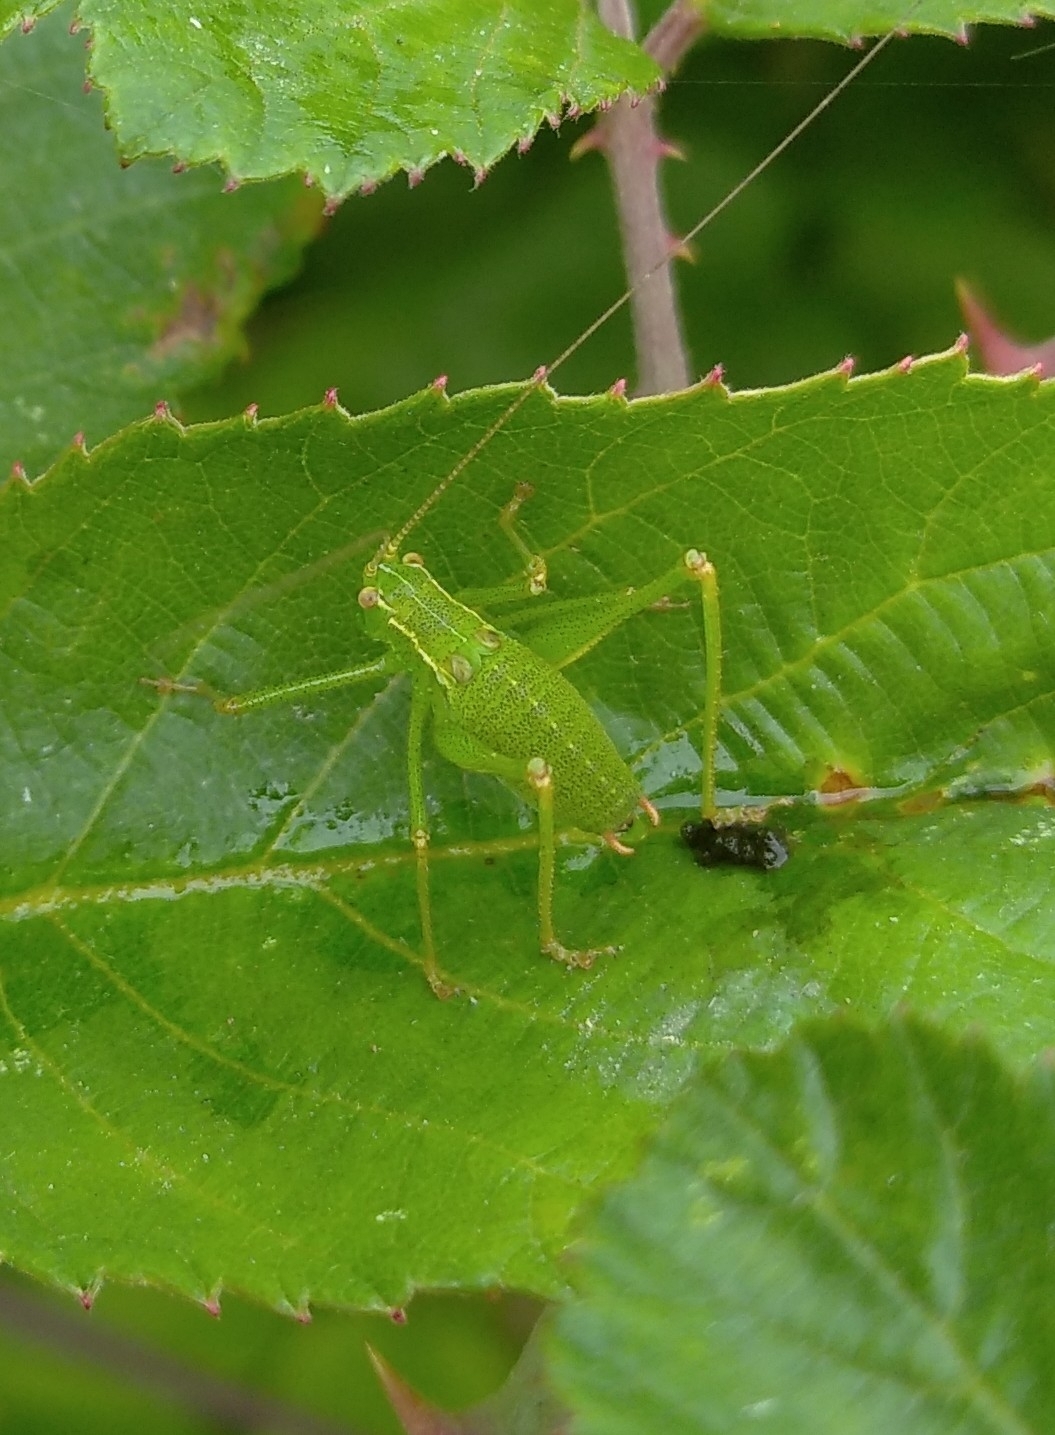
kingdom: Animalia
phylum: Arthropoda
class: Insecta
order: Orthoptera
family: Tettigoniidae
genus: Leptophyes
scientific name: Leptophyes punctatissima
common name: Speckled bush-cricket
